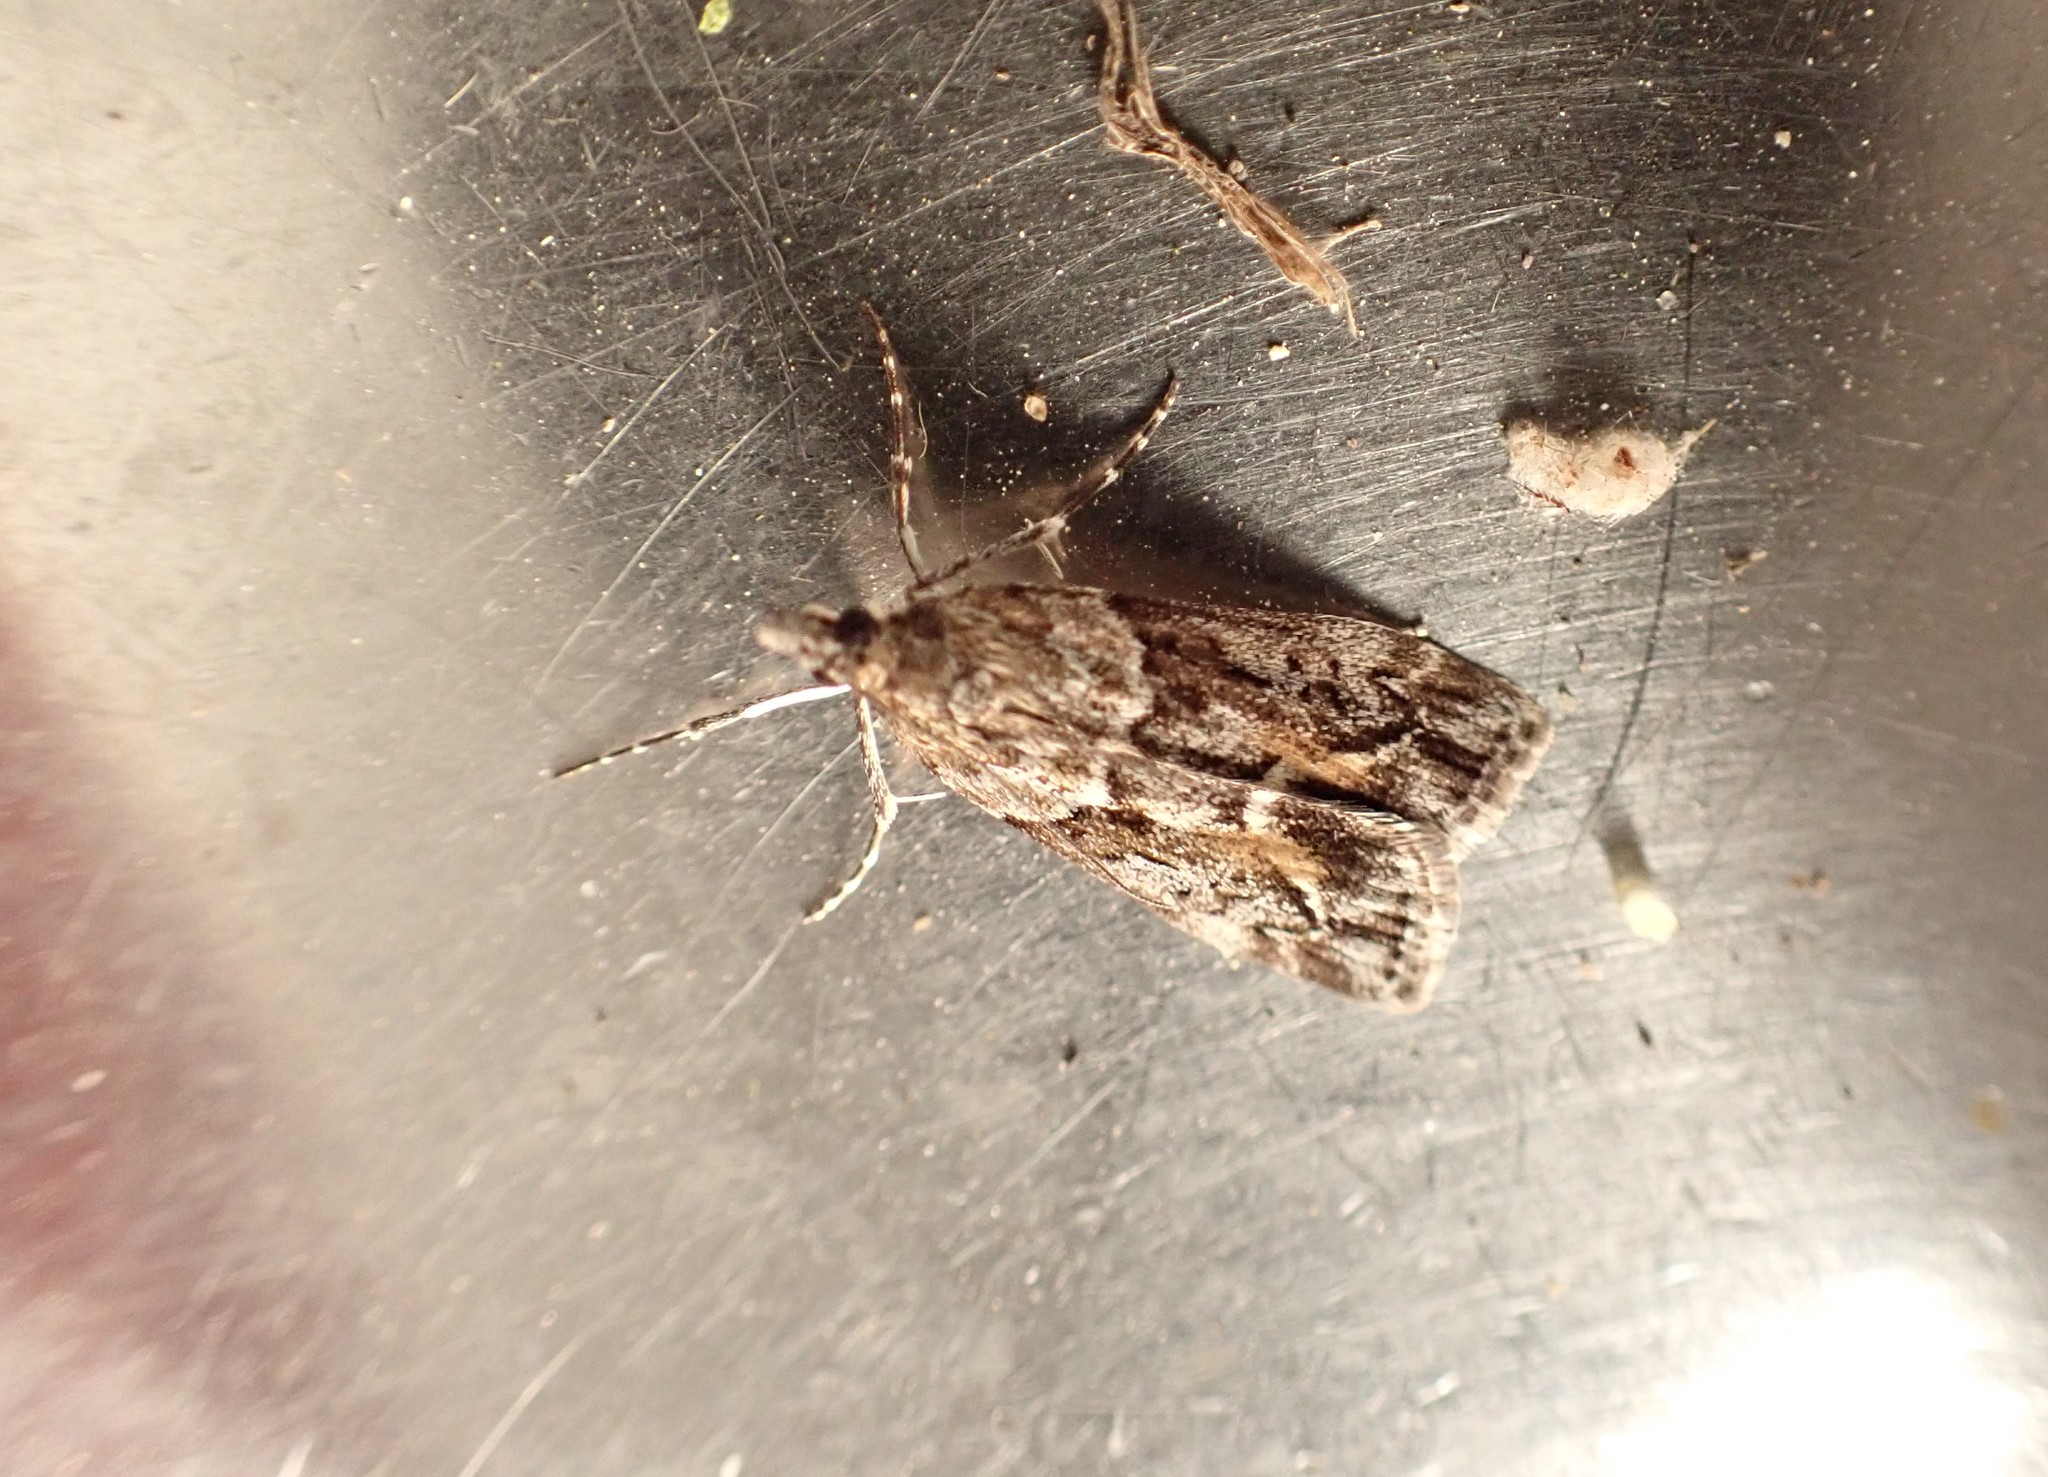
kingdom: Animalia
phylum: Arthropoda
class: Insecta
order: Lepidoptera
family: Crambidae
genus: Eudonia
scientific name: Eudonia submarginalis
